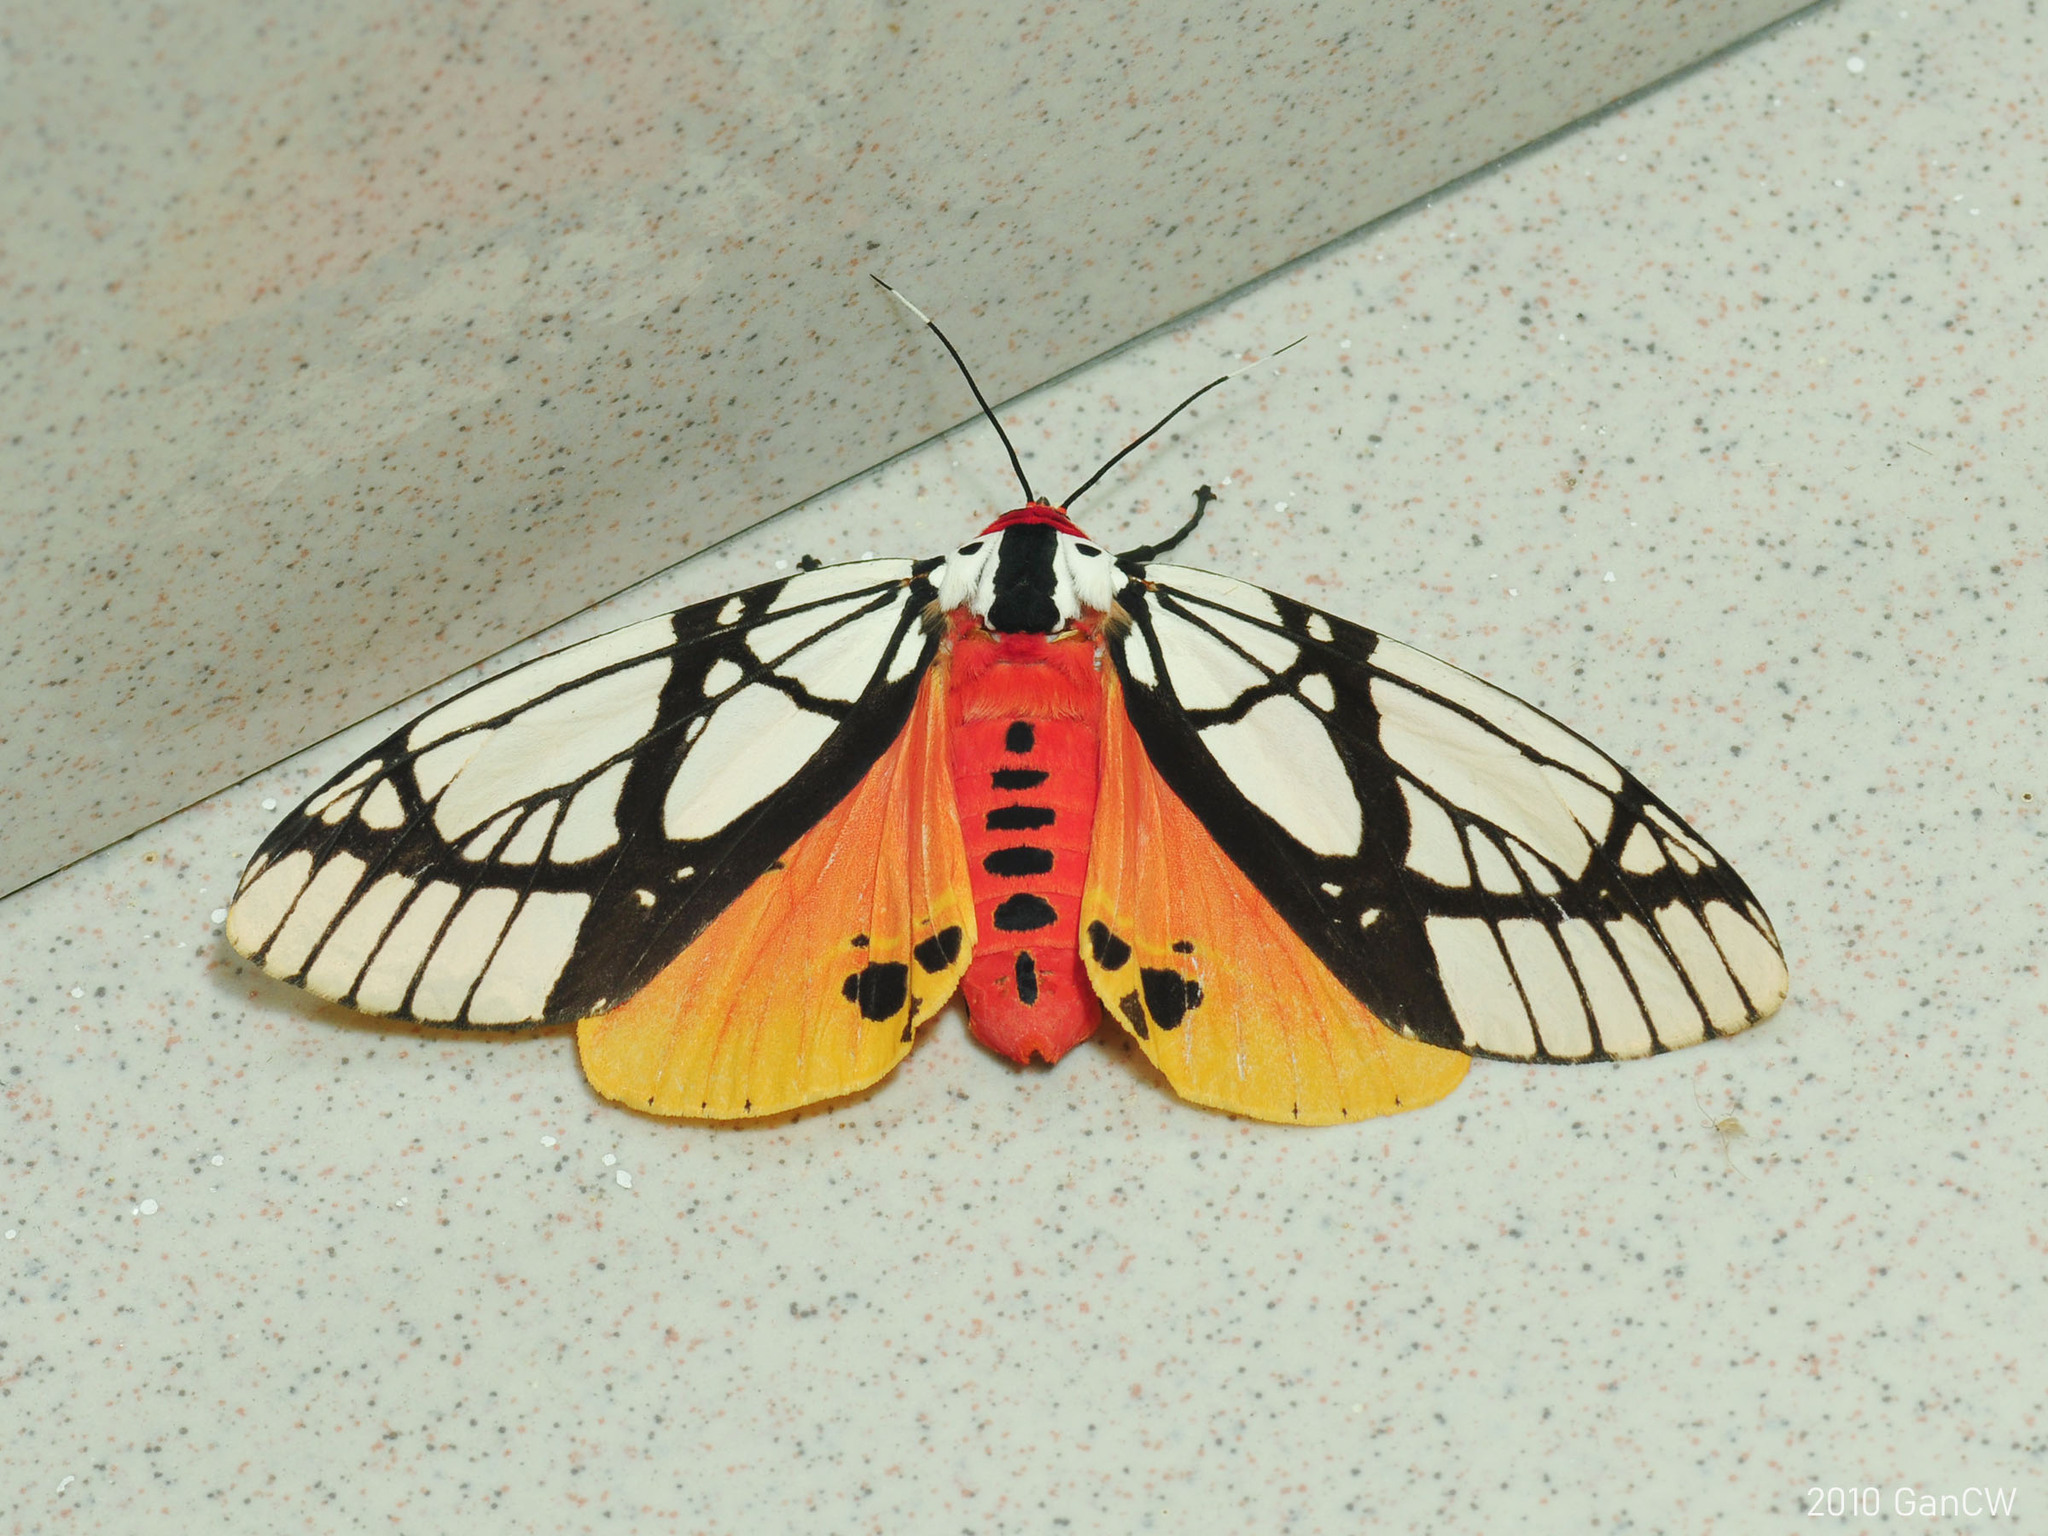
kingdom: Animalia
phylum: Arthropoda
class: Insecta
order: Lepidoptera
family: Erebidae
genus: Areas
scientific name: Areas galactina
